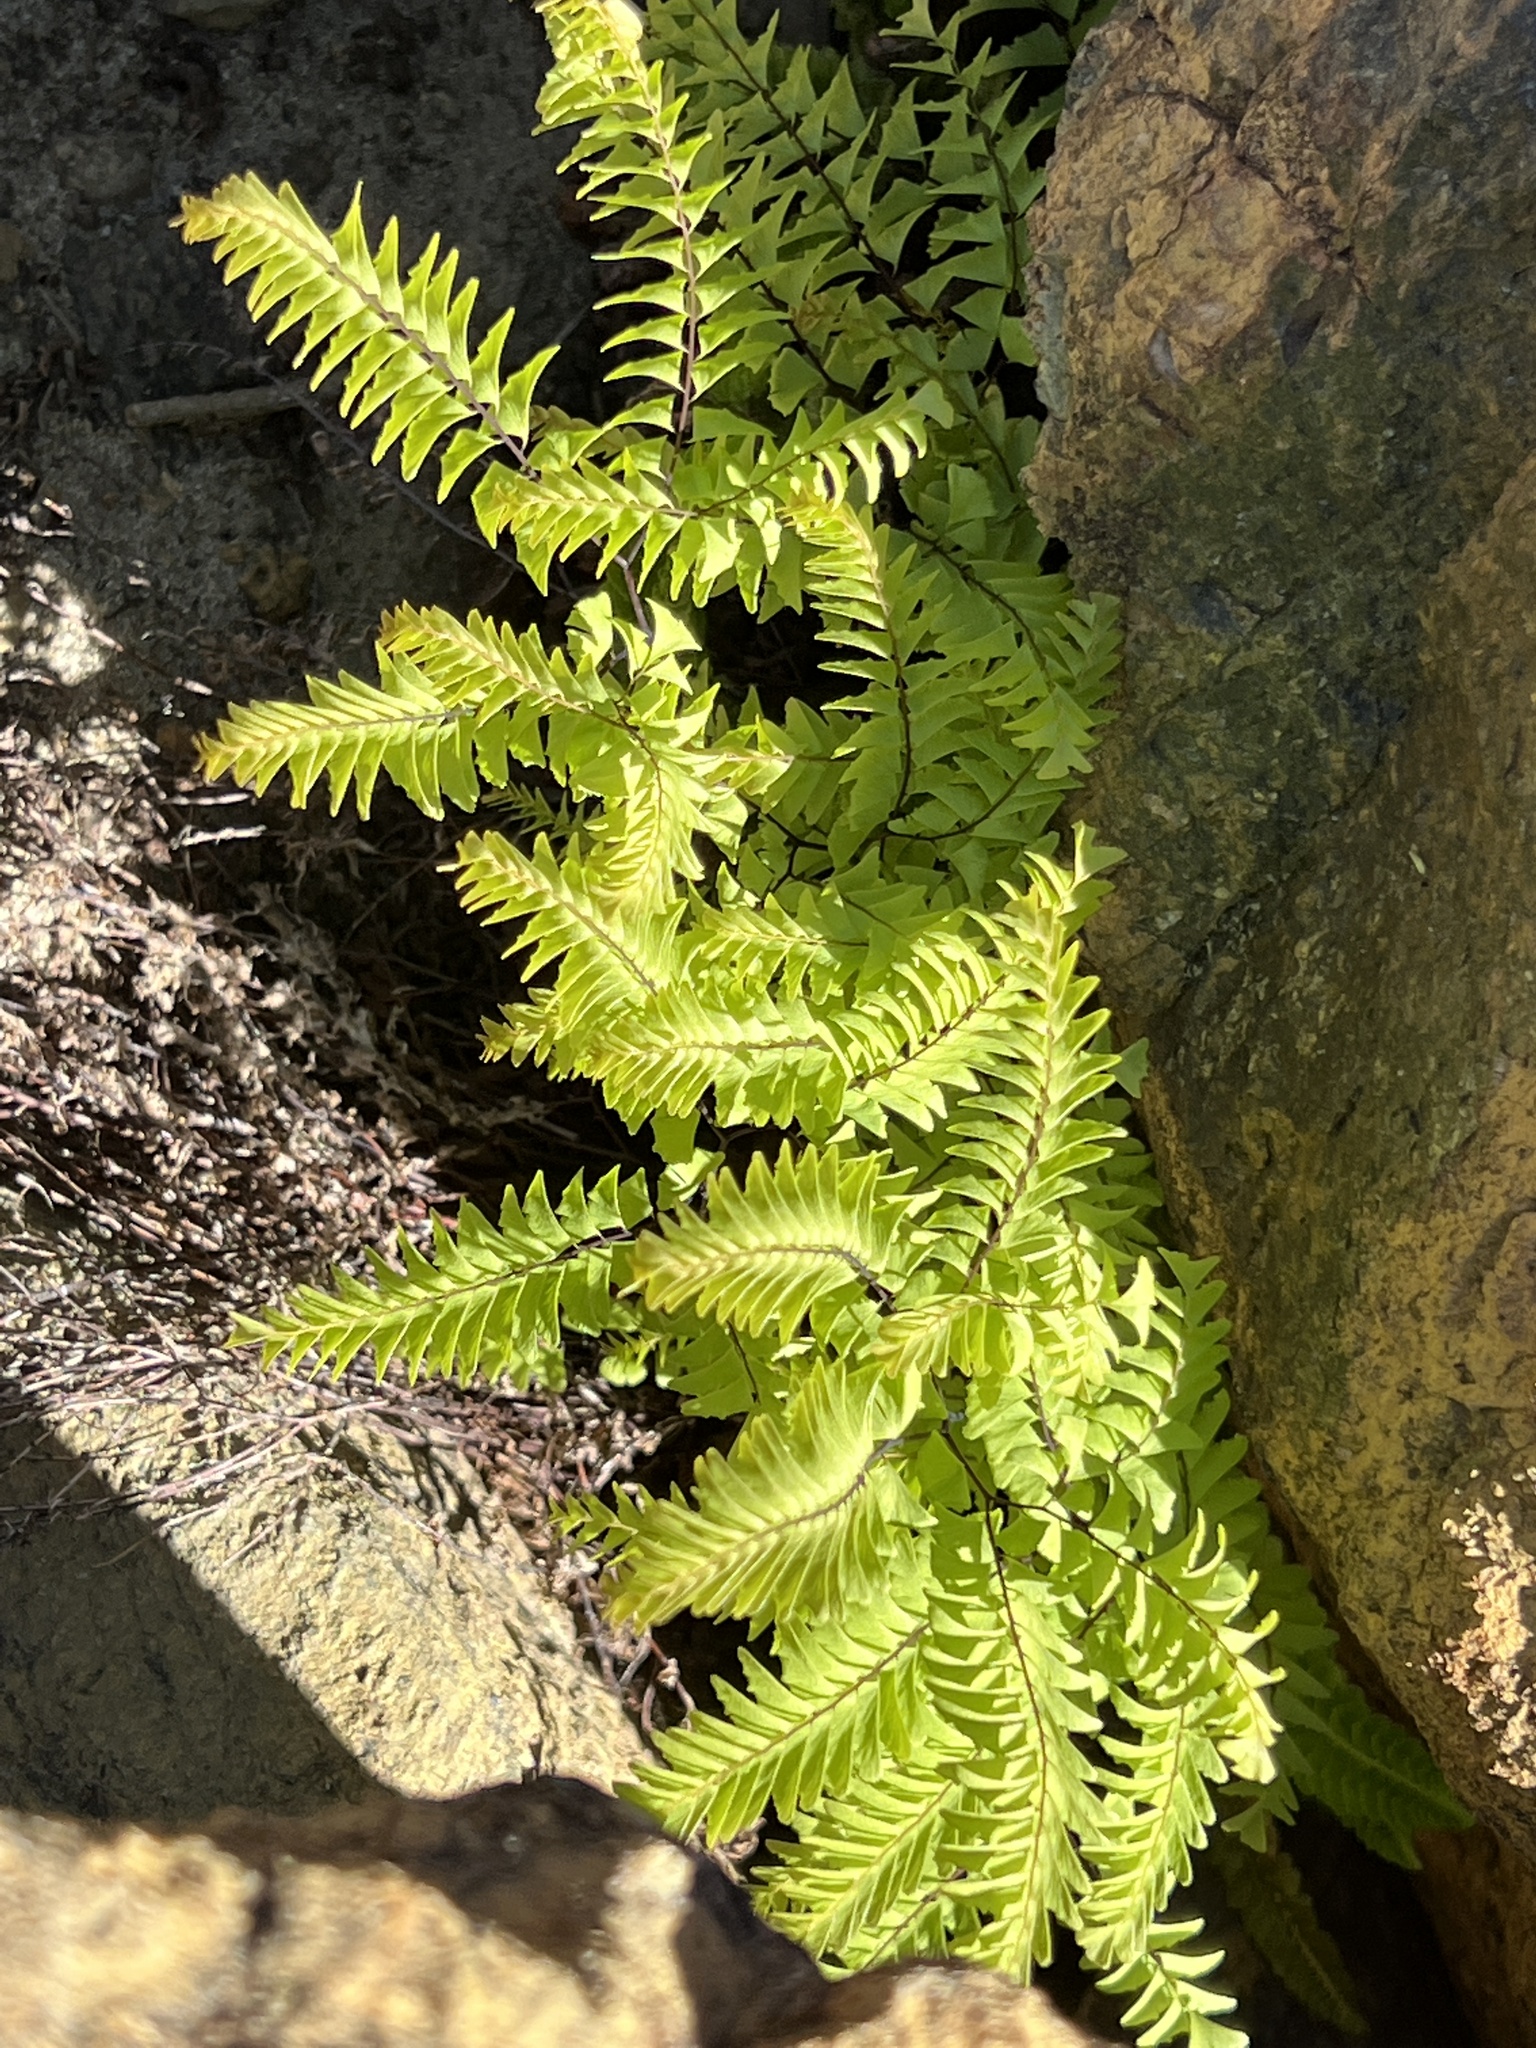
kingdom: Plantae
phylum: Tracheophyta
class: Polypodiopsida
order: Polypodiales
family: Pteridaceae
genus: Adiantum
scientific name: Adiantum aleuticum
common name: Aleutian maidenhair fern
